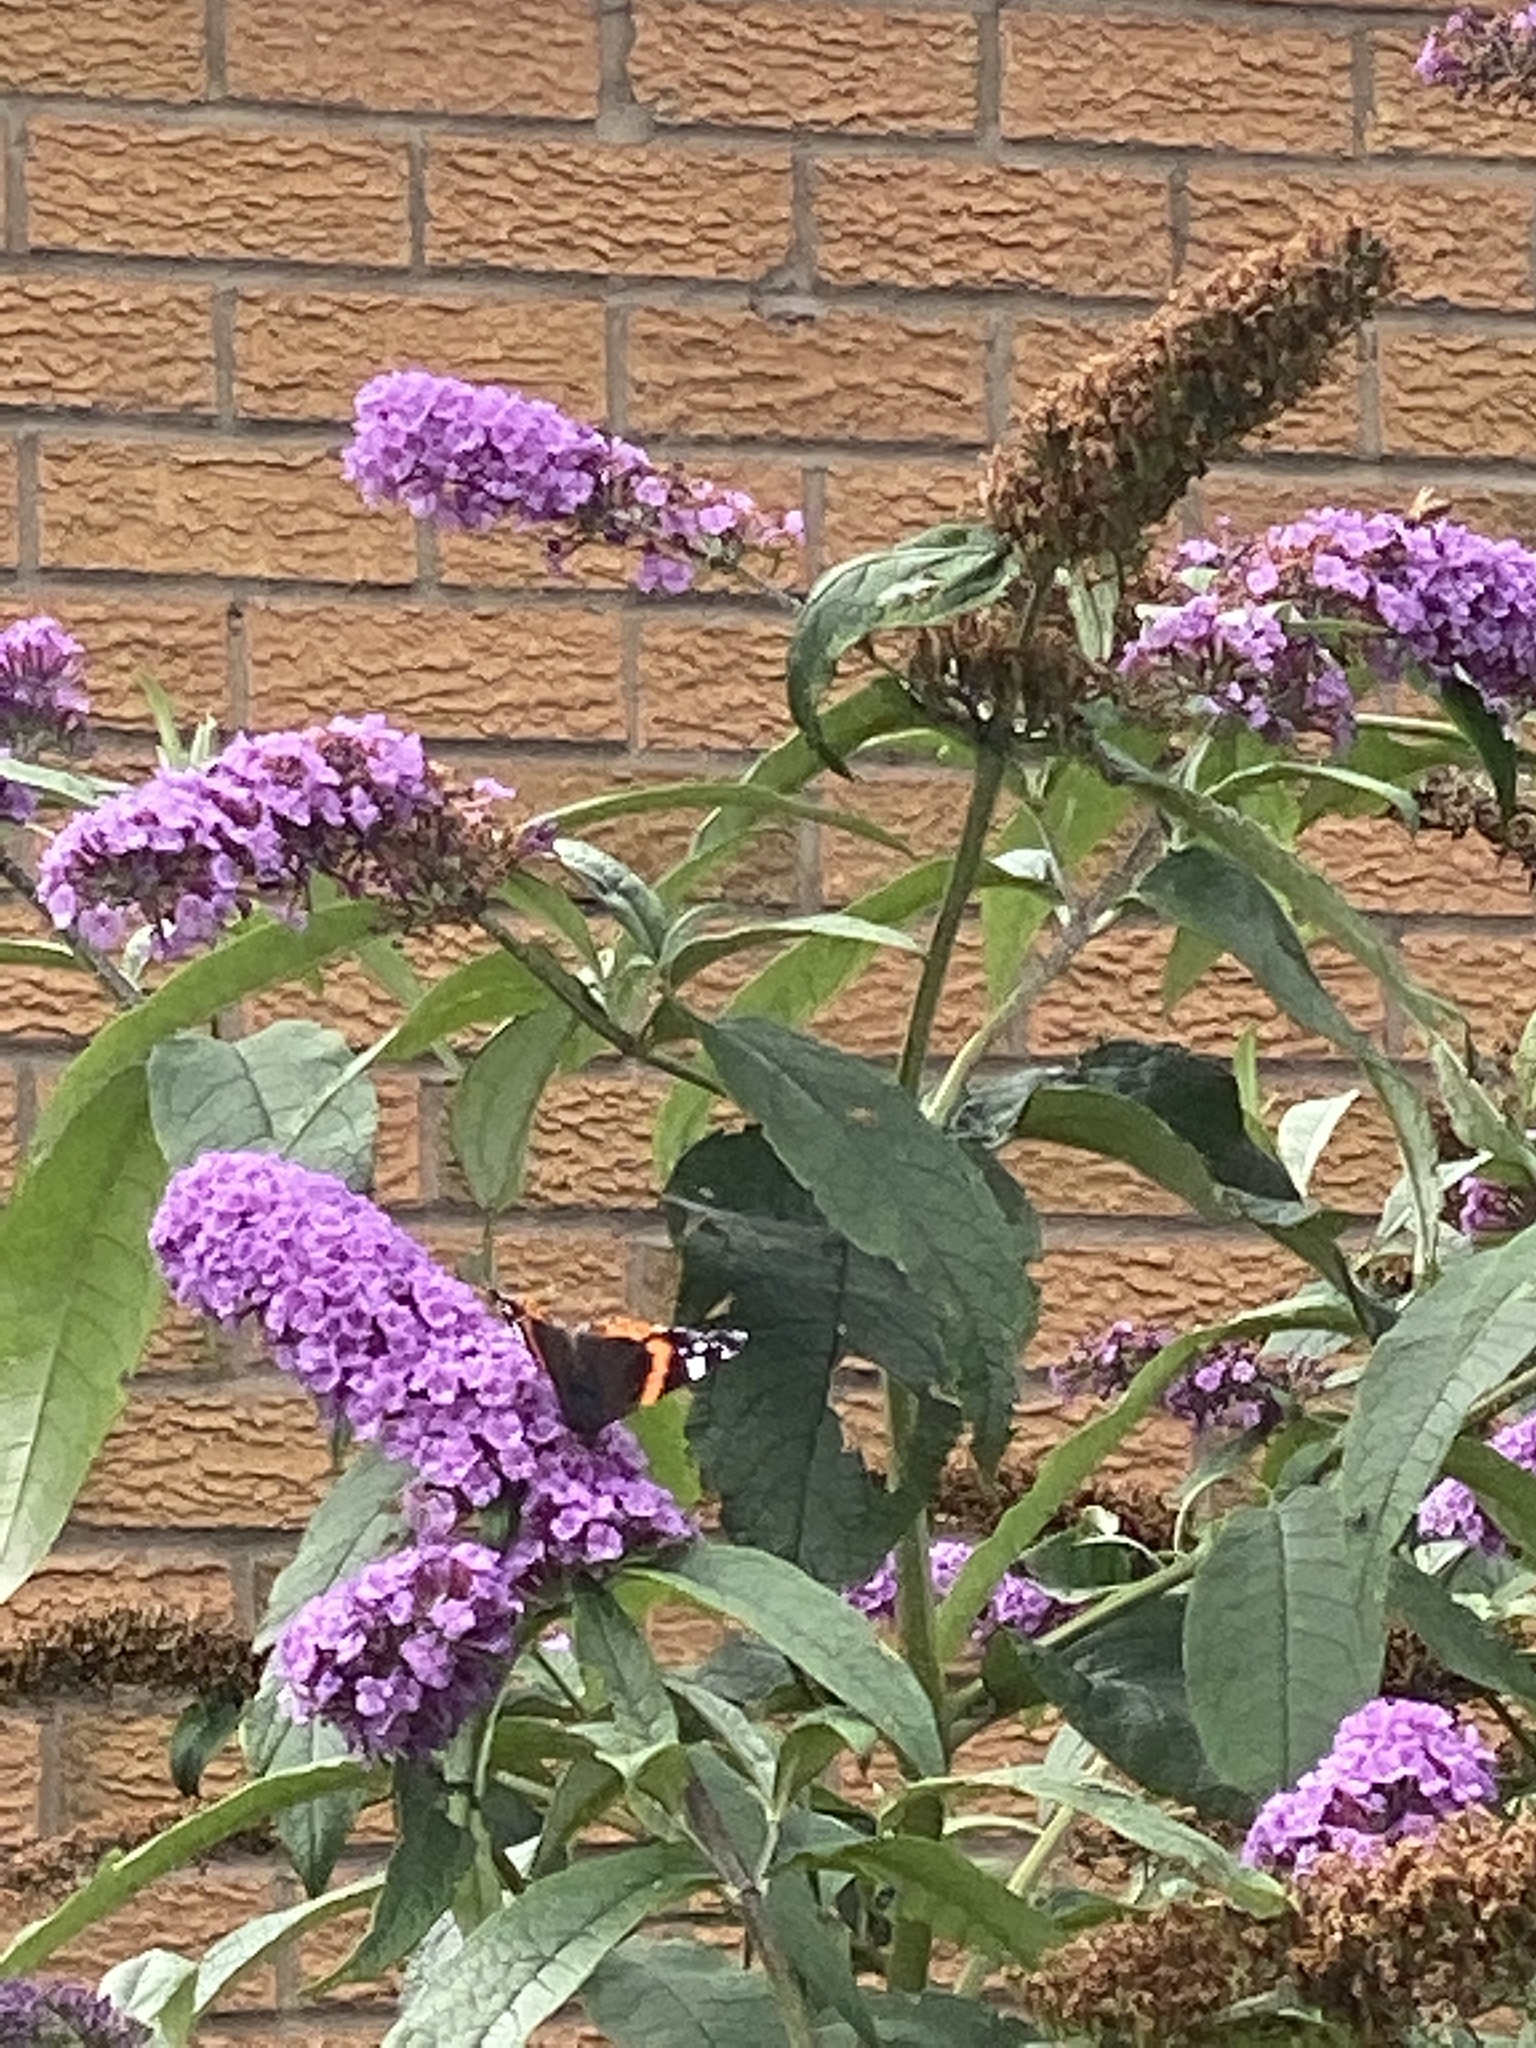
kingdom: Animalia
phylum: Arthropoda
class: Insecta
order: Lepidoptera
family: Nymphalidae
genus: Vanessa
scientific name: Vanessa atalanta
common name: Red admiral
